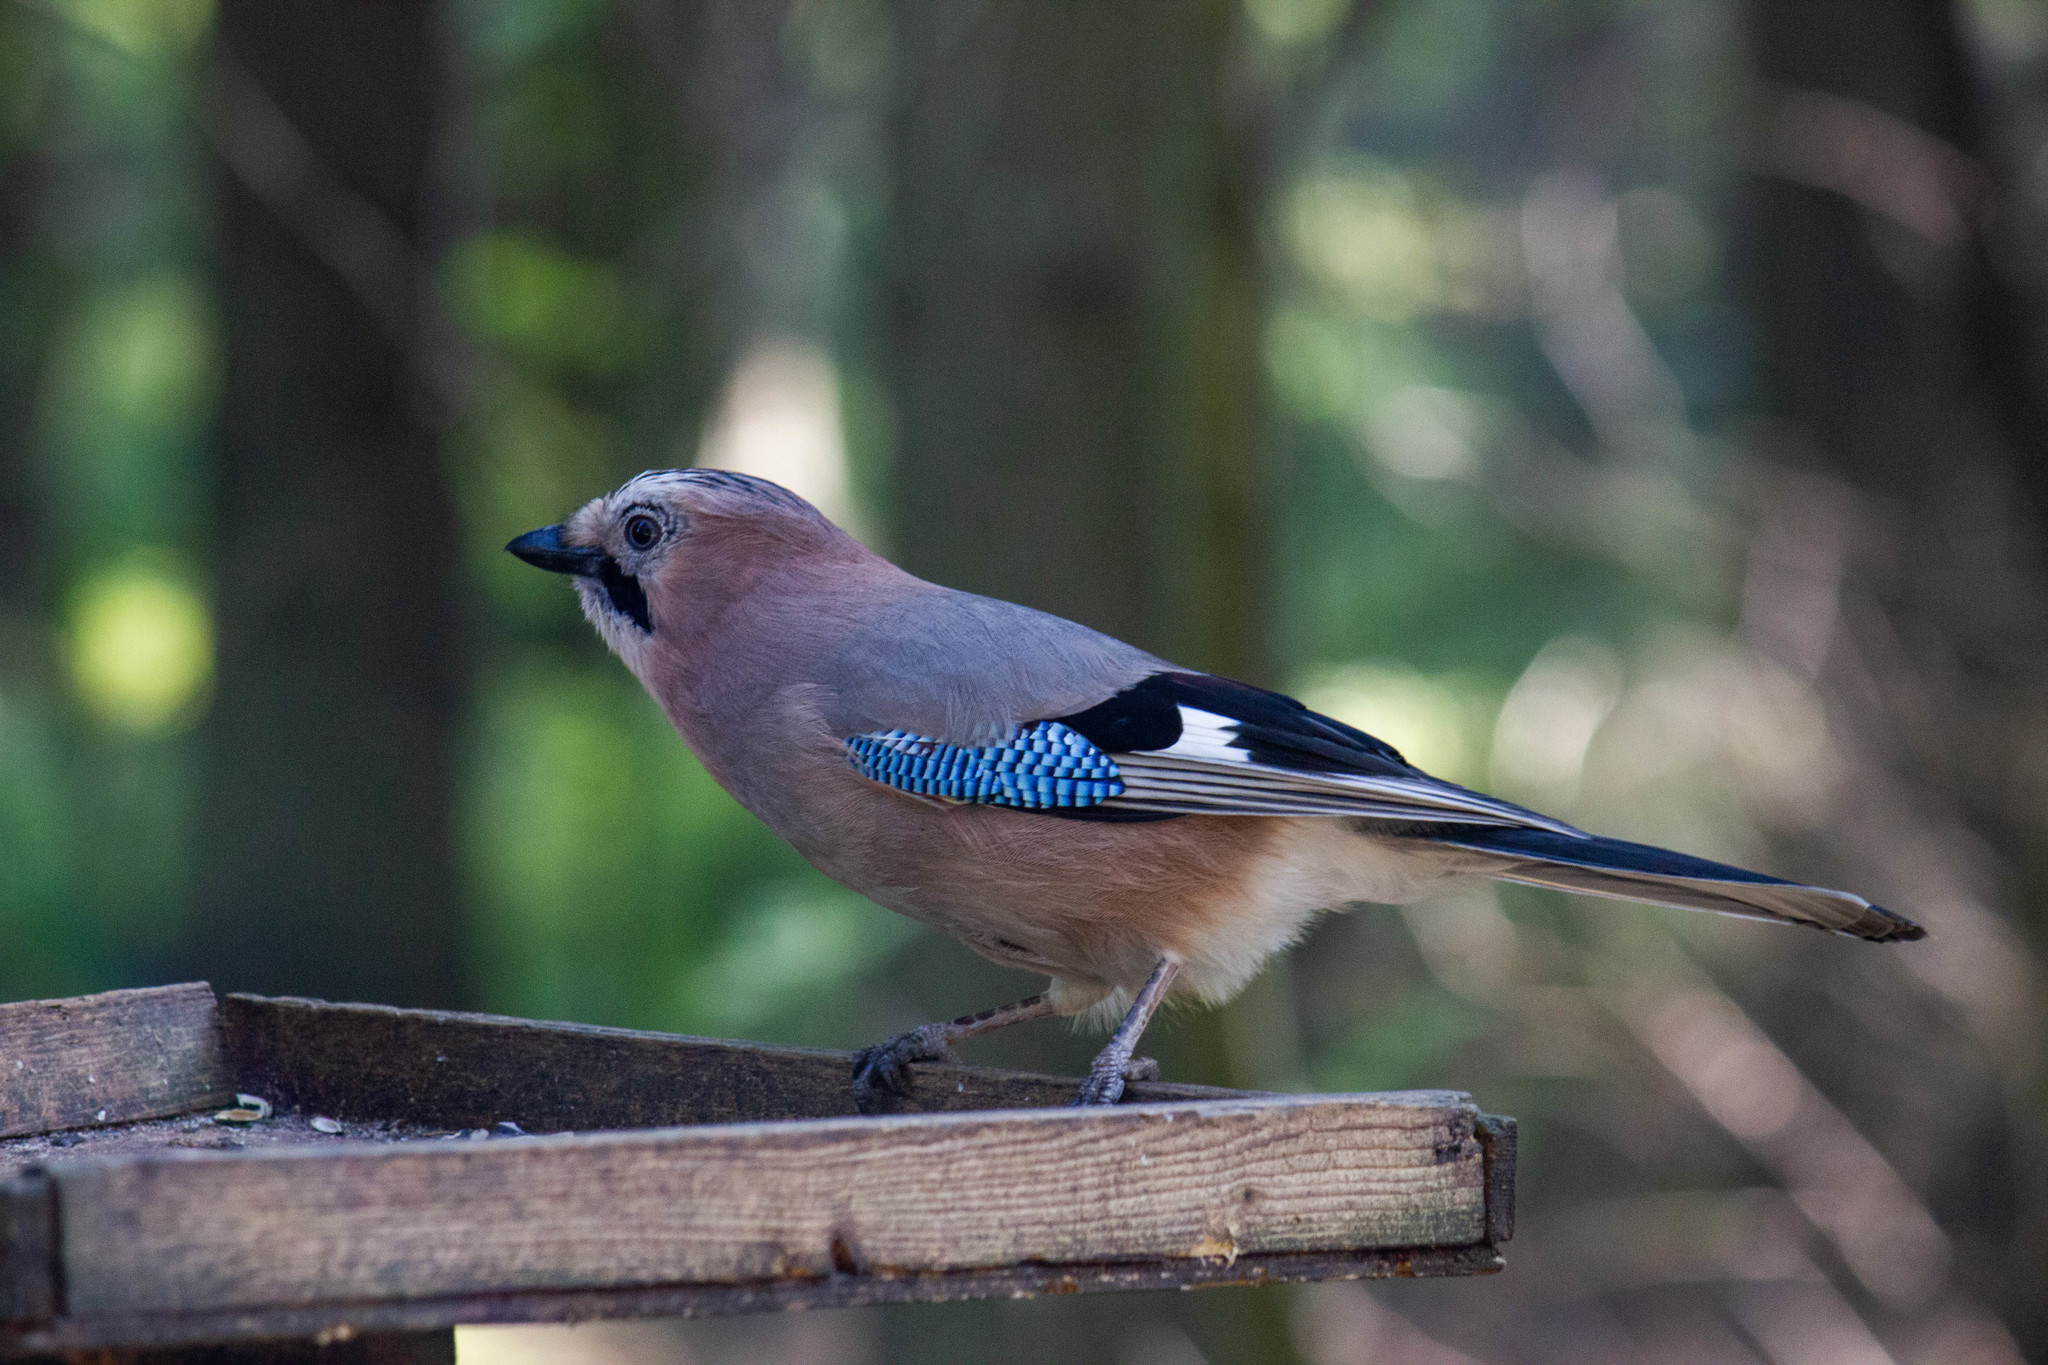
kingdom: Animalia
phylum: Chordata
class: Aves
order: Passeriformes
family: Corvidae
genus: Garrulus
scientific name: Garrulus glandarius
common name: Eurasian jay
